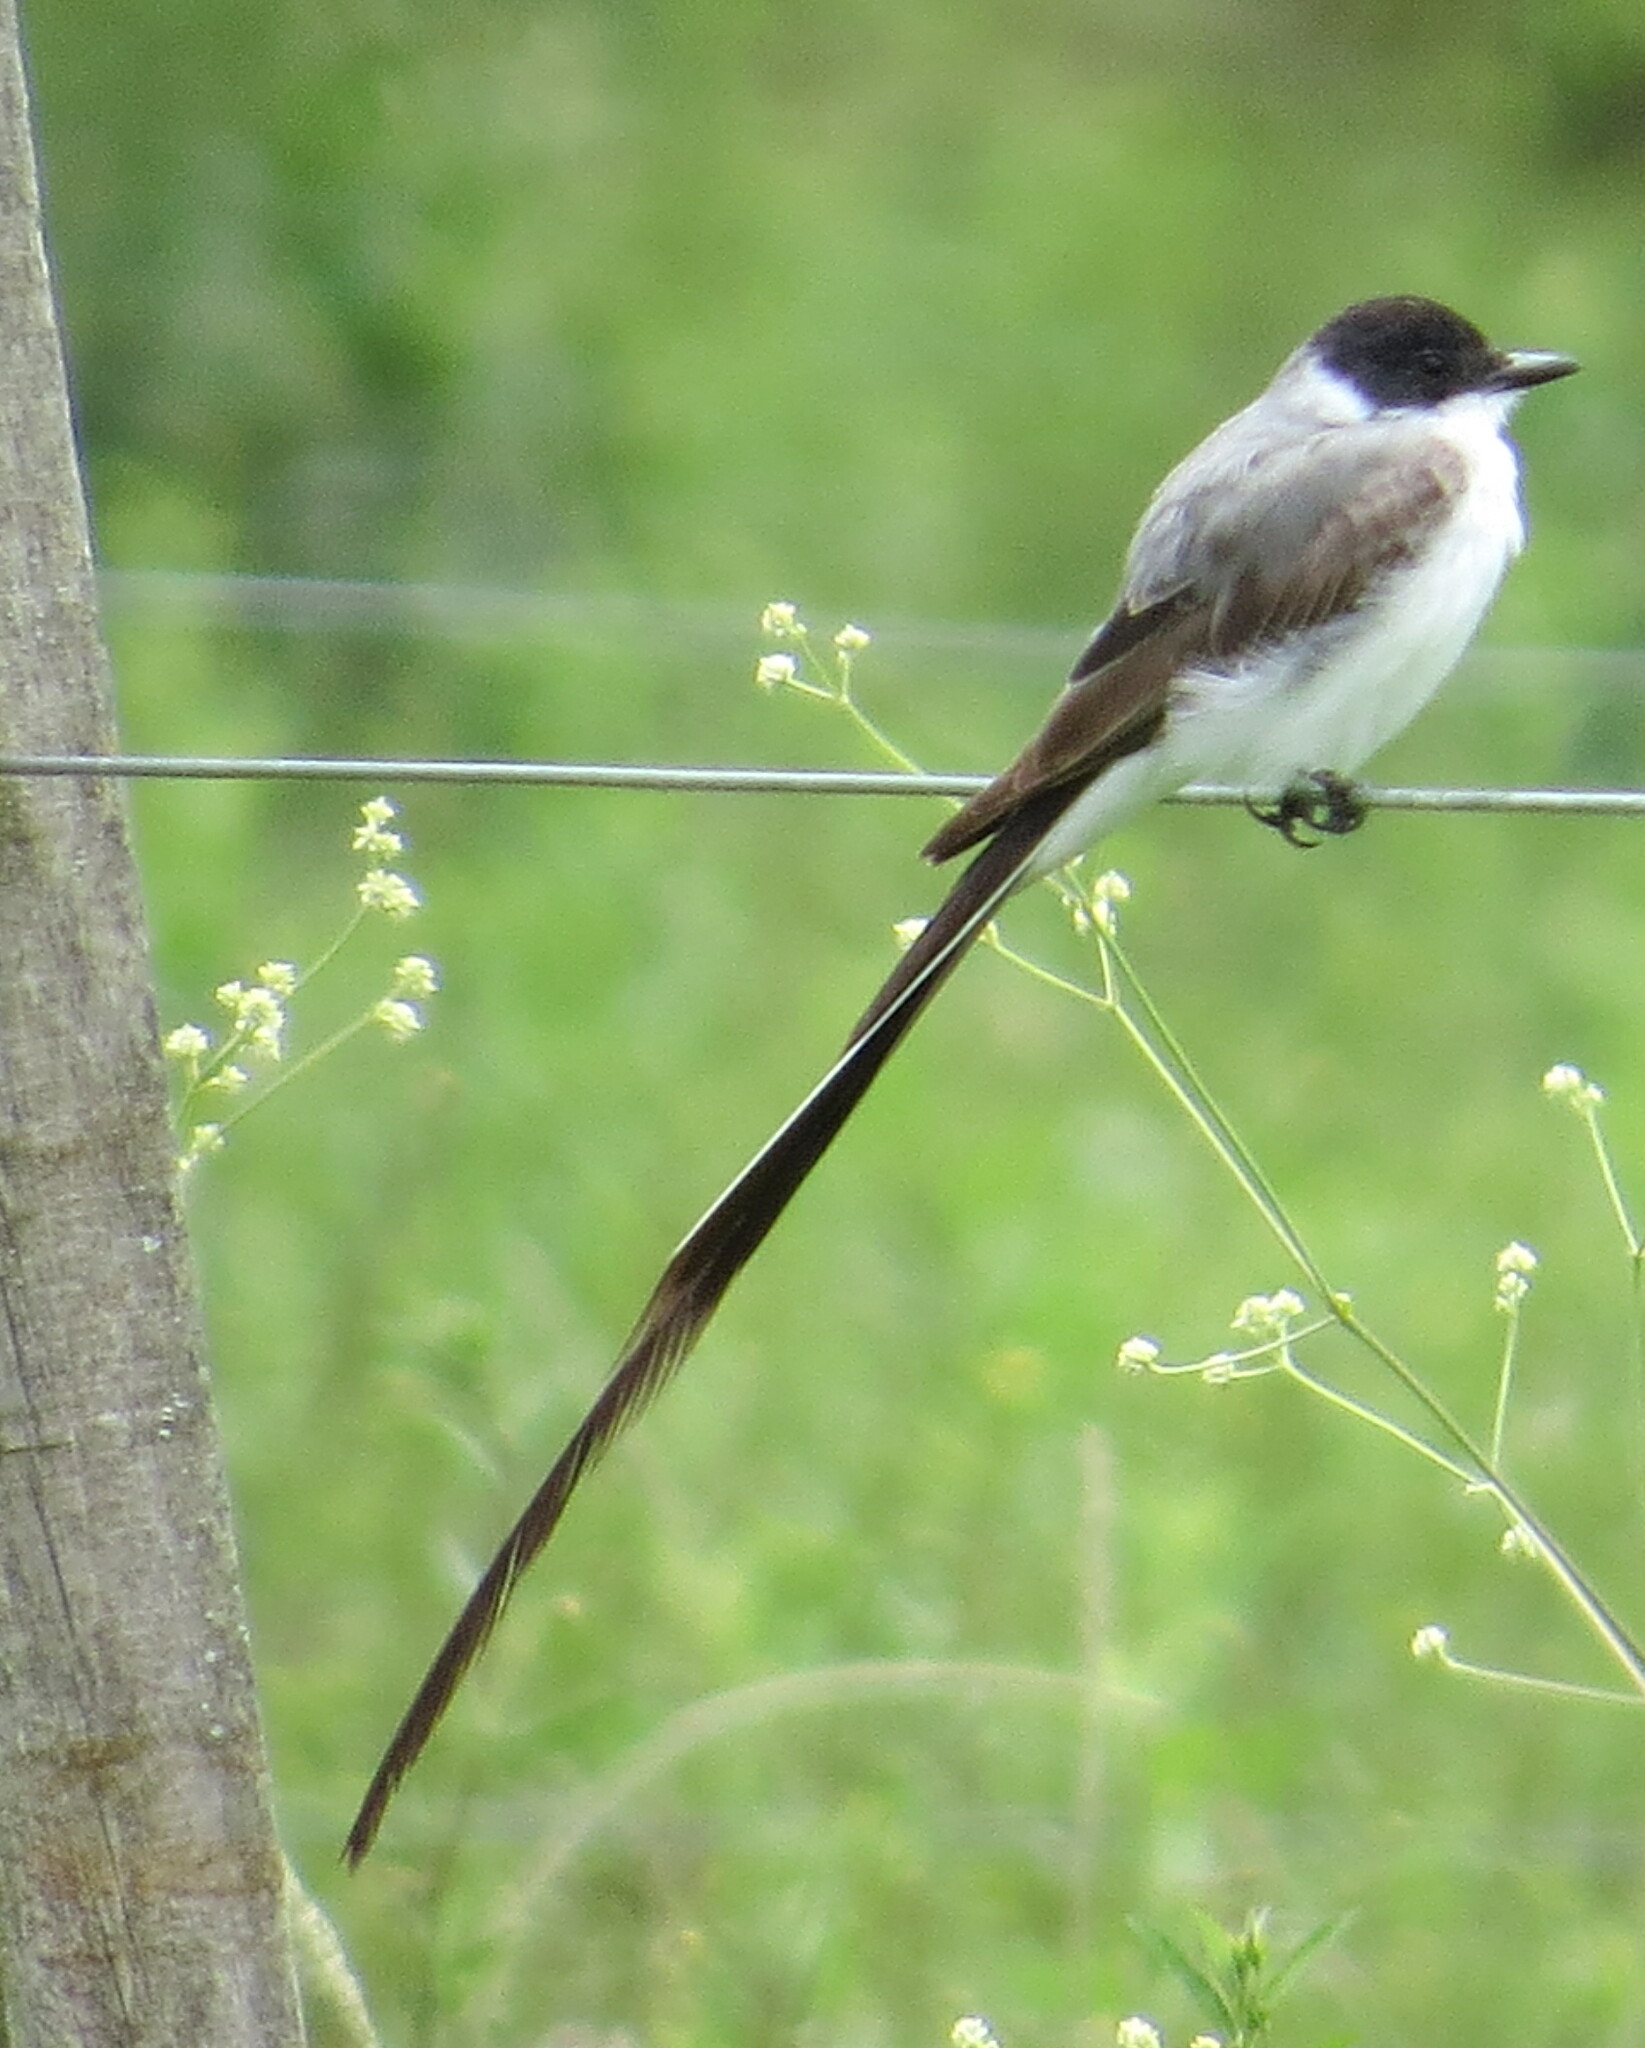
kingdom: Animalia
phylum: Chordata
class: Aves
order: Passeriformes
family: Tyrannidae
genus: Tyrannus
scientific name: Tyrannus savana
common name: Fork-tailed flycatcher
